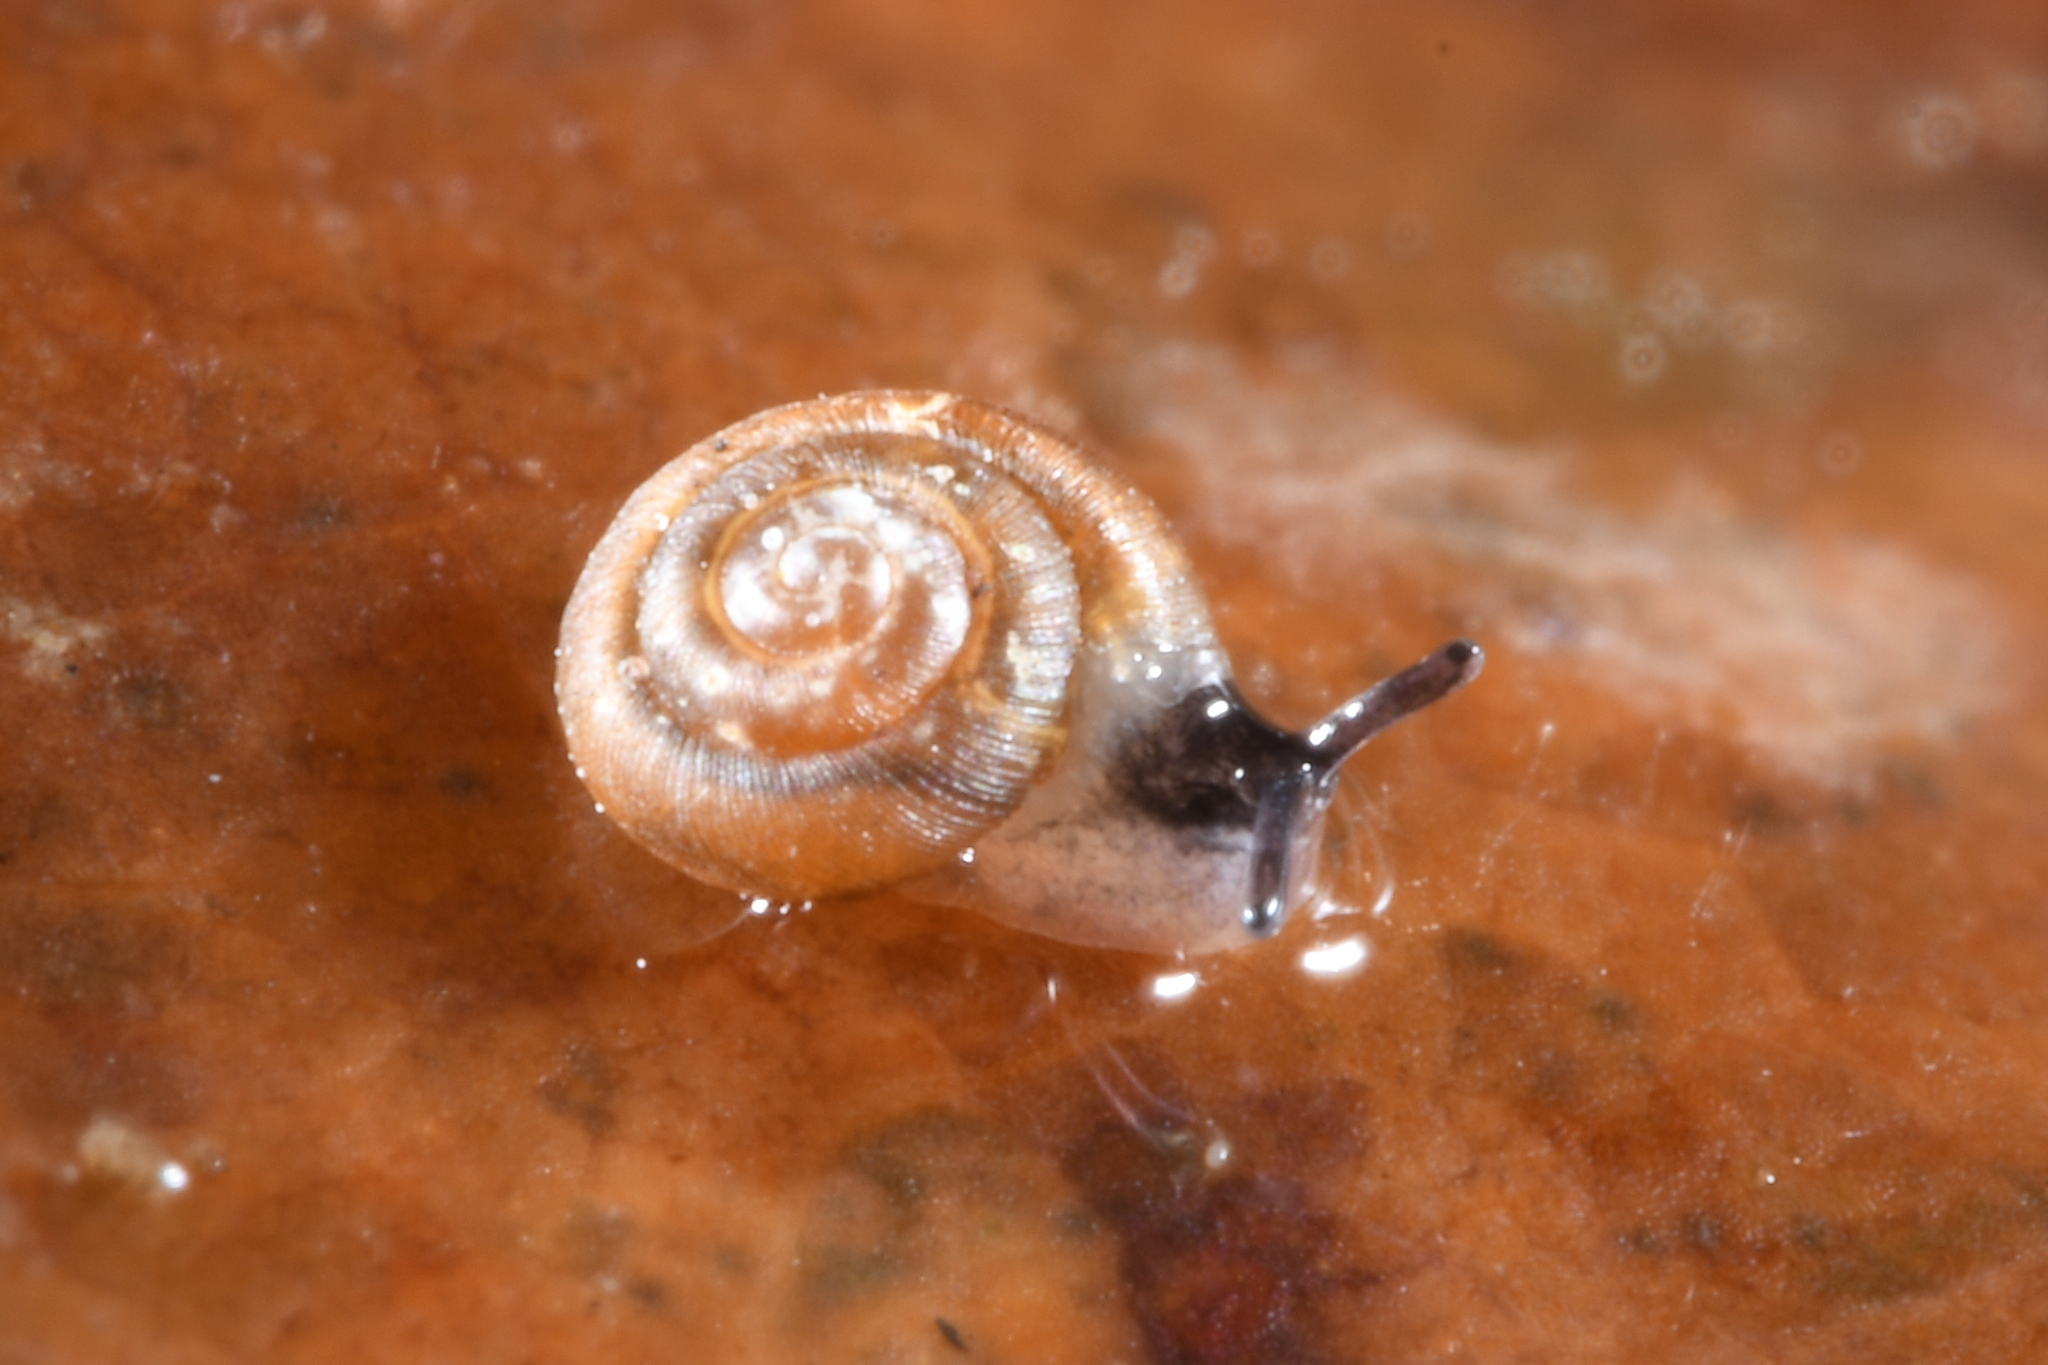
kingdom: Animalia
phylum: Mollusca
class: Gastropoda
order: Stylommatophora
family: Punctidae
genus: Punctum
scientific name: Punctum pygmaeum
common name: Dwarf snail
